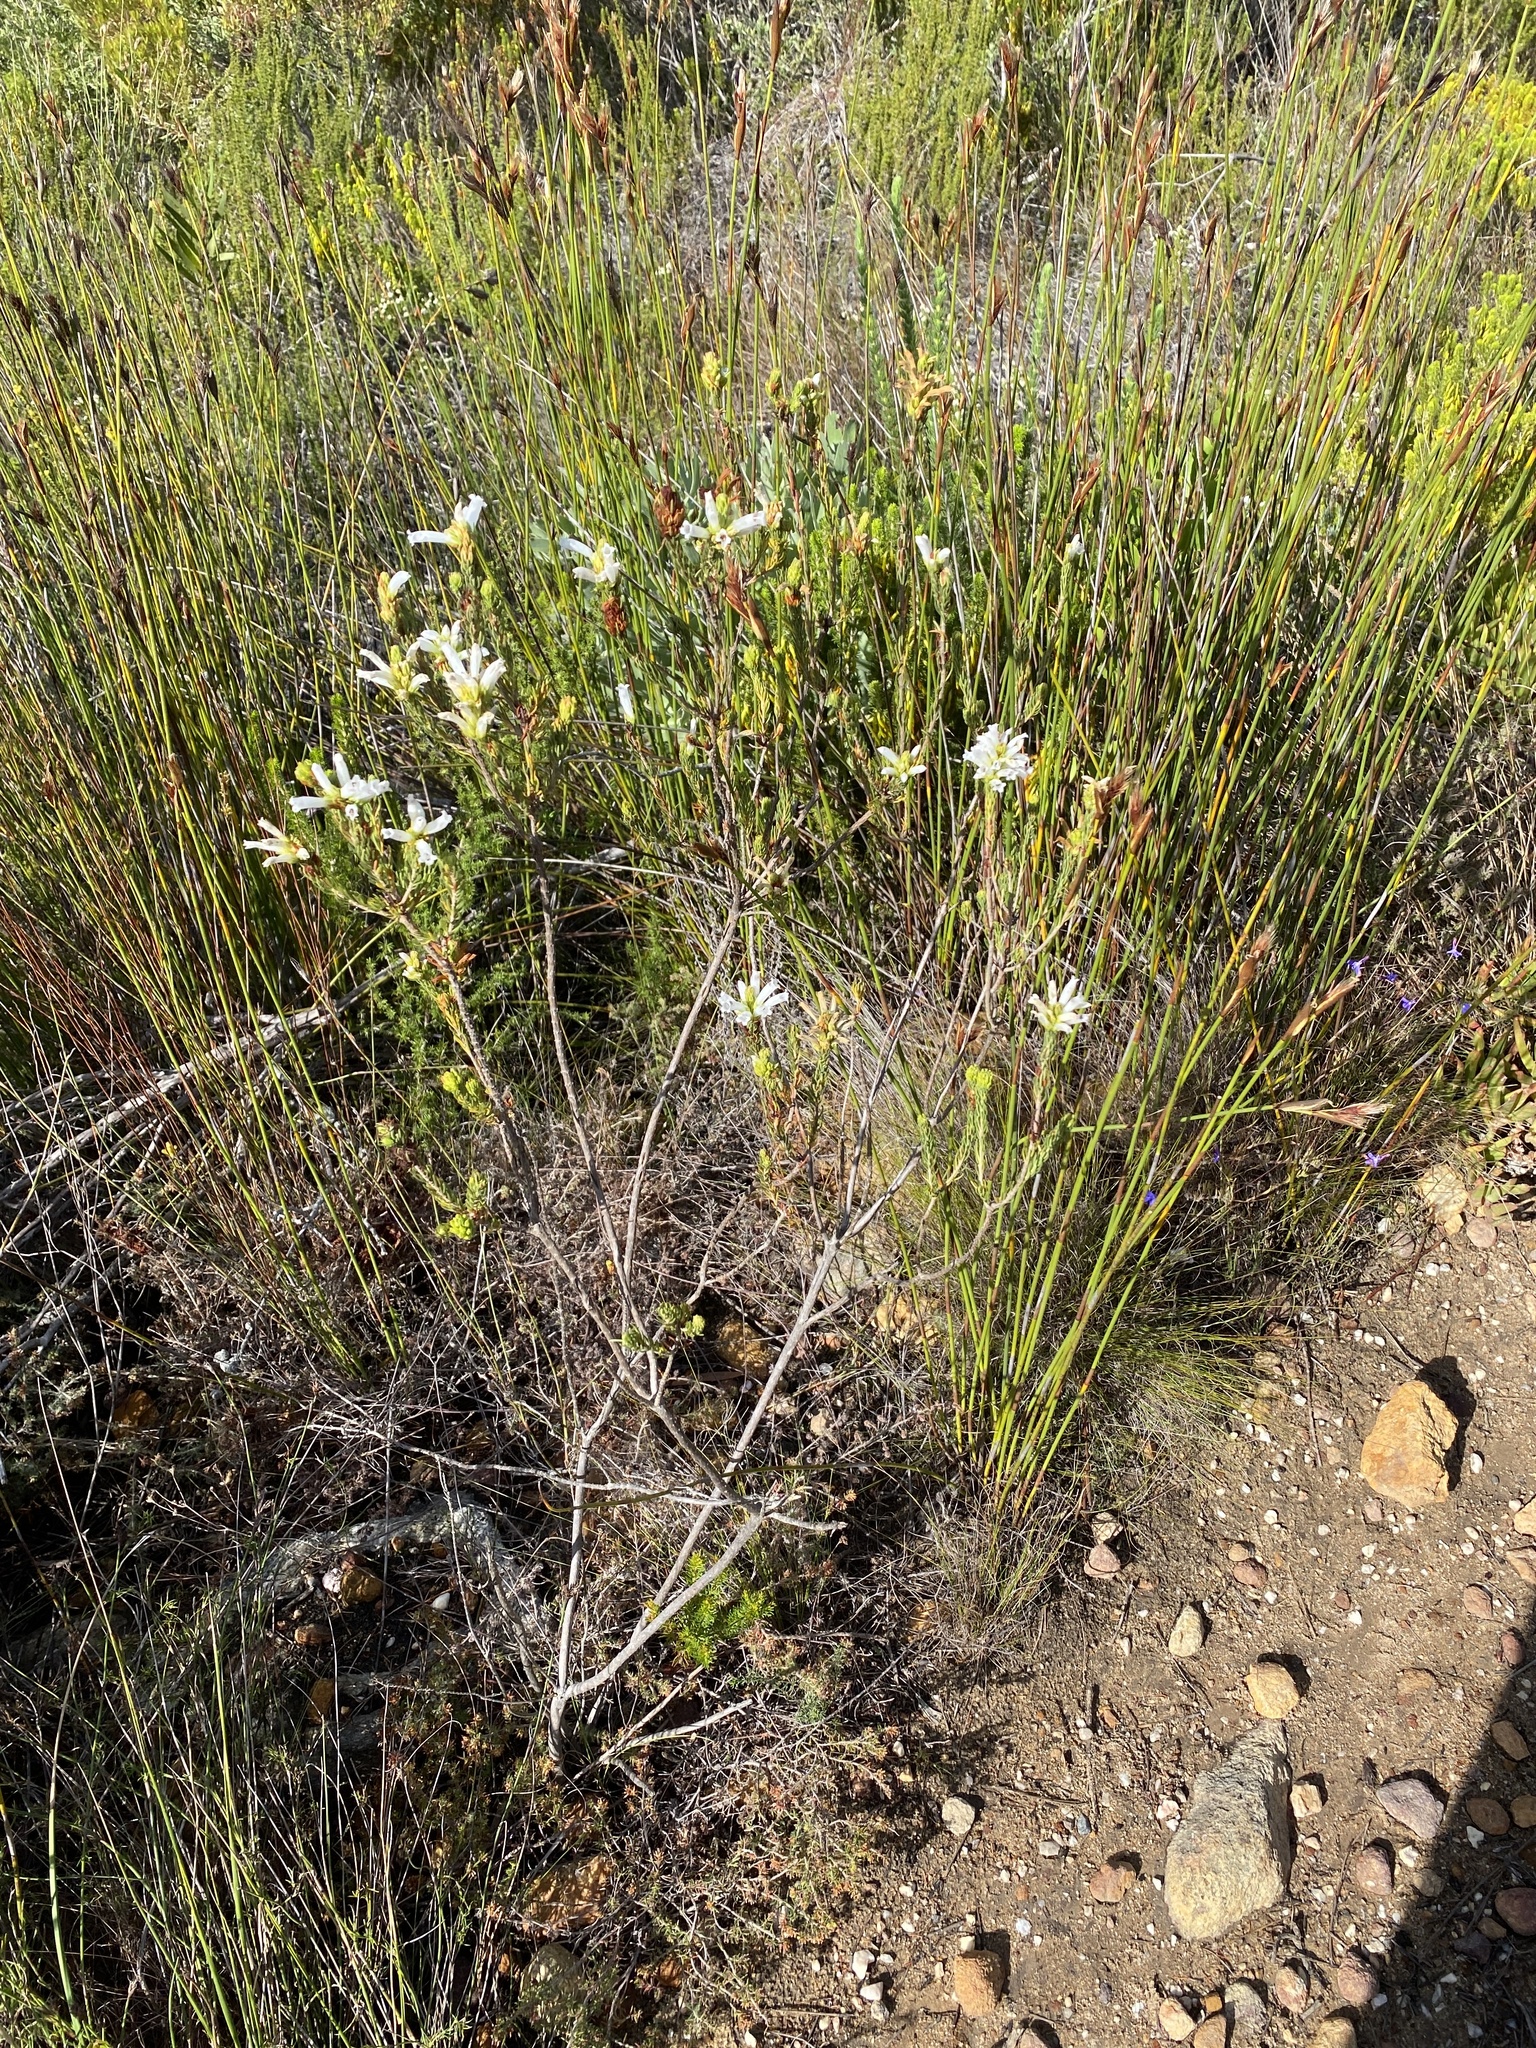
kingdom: Plantae
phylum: Tracheophyta
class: Magnoliopsida
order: Ericales
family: Ericaceae
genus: Erica
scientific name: Erica viscaria
